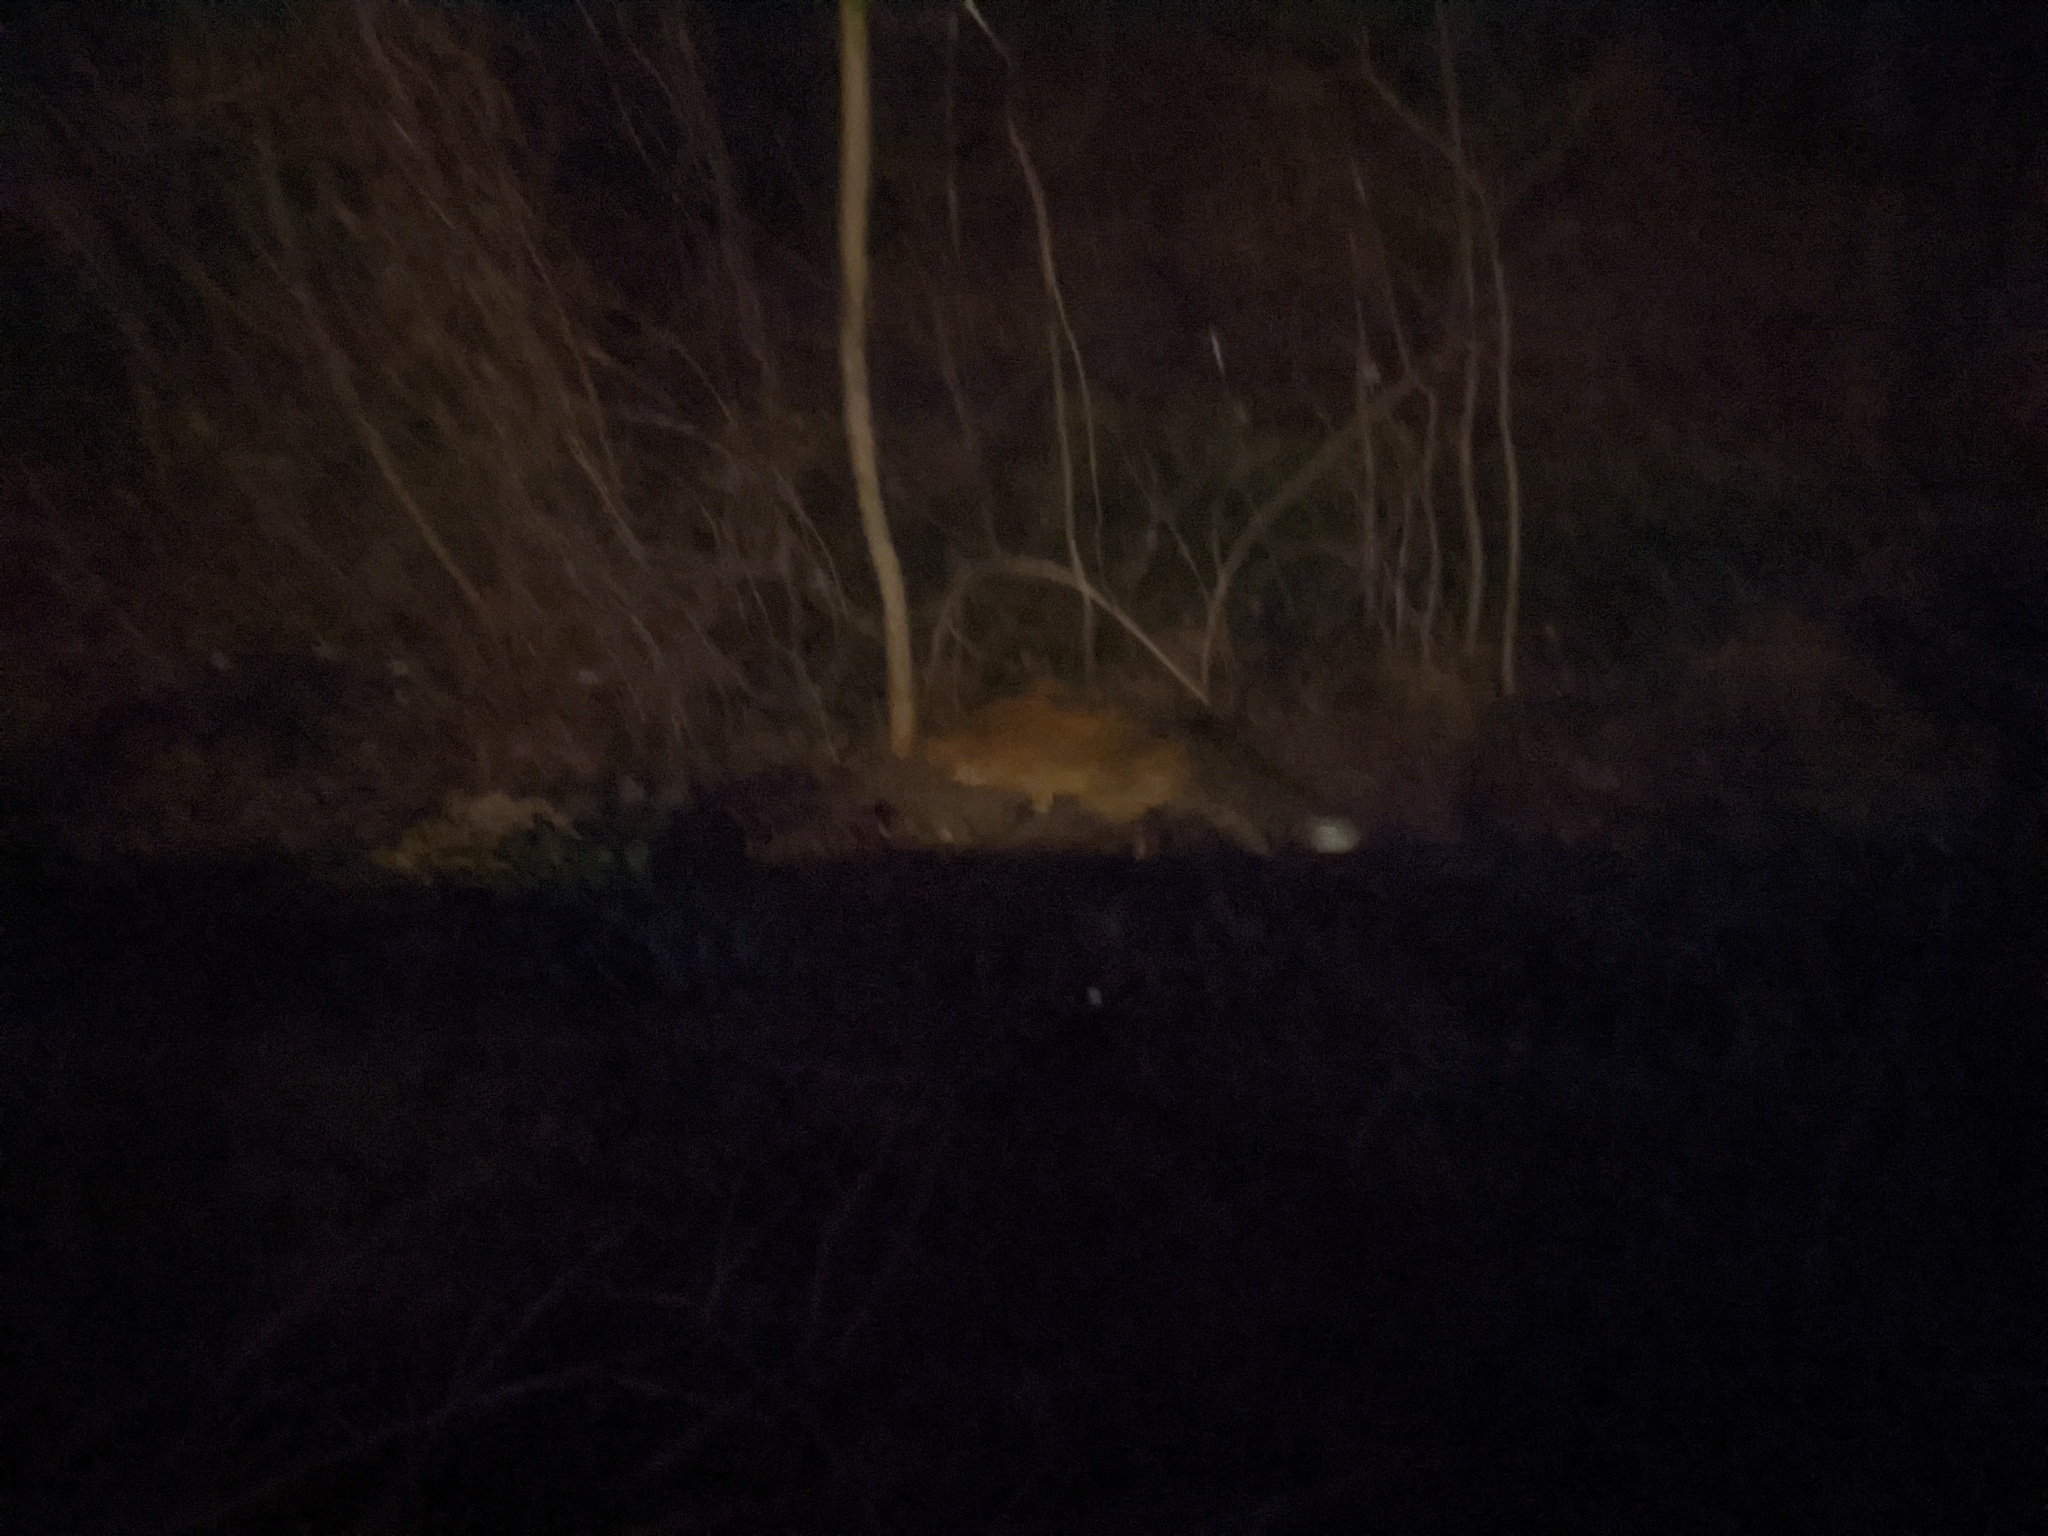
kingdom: Animalia
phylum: Chordata
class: Mammalia
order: Carnivora
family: Canidae
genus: Vulpes
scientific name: Vulpes vulpes
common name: Red fox
